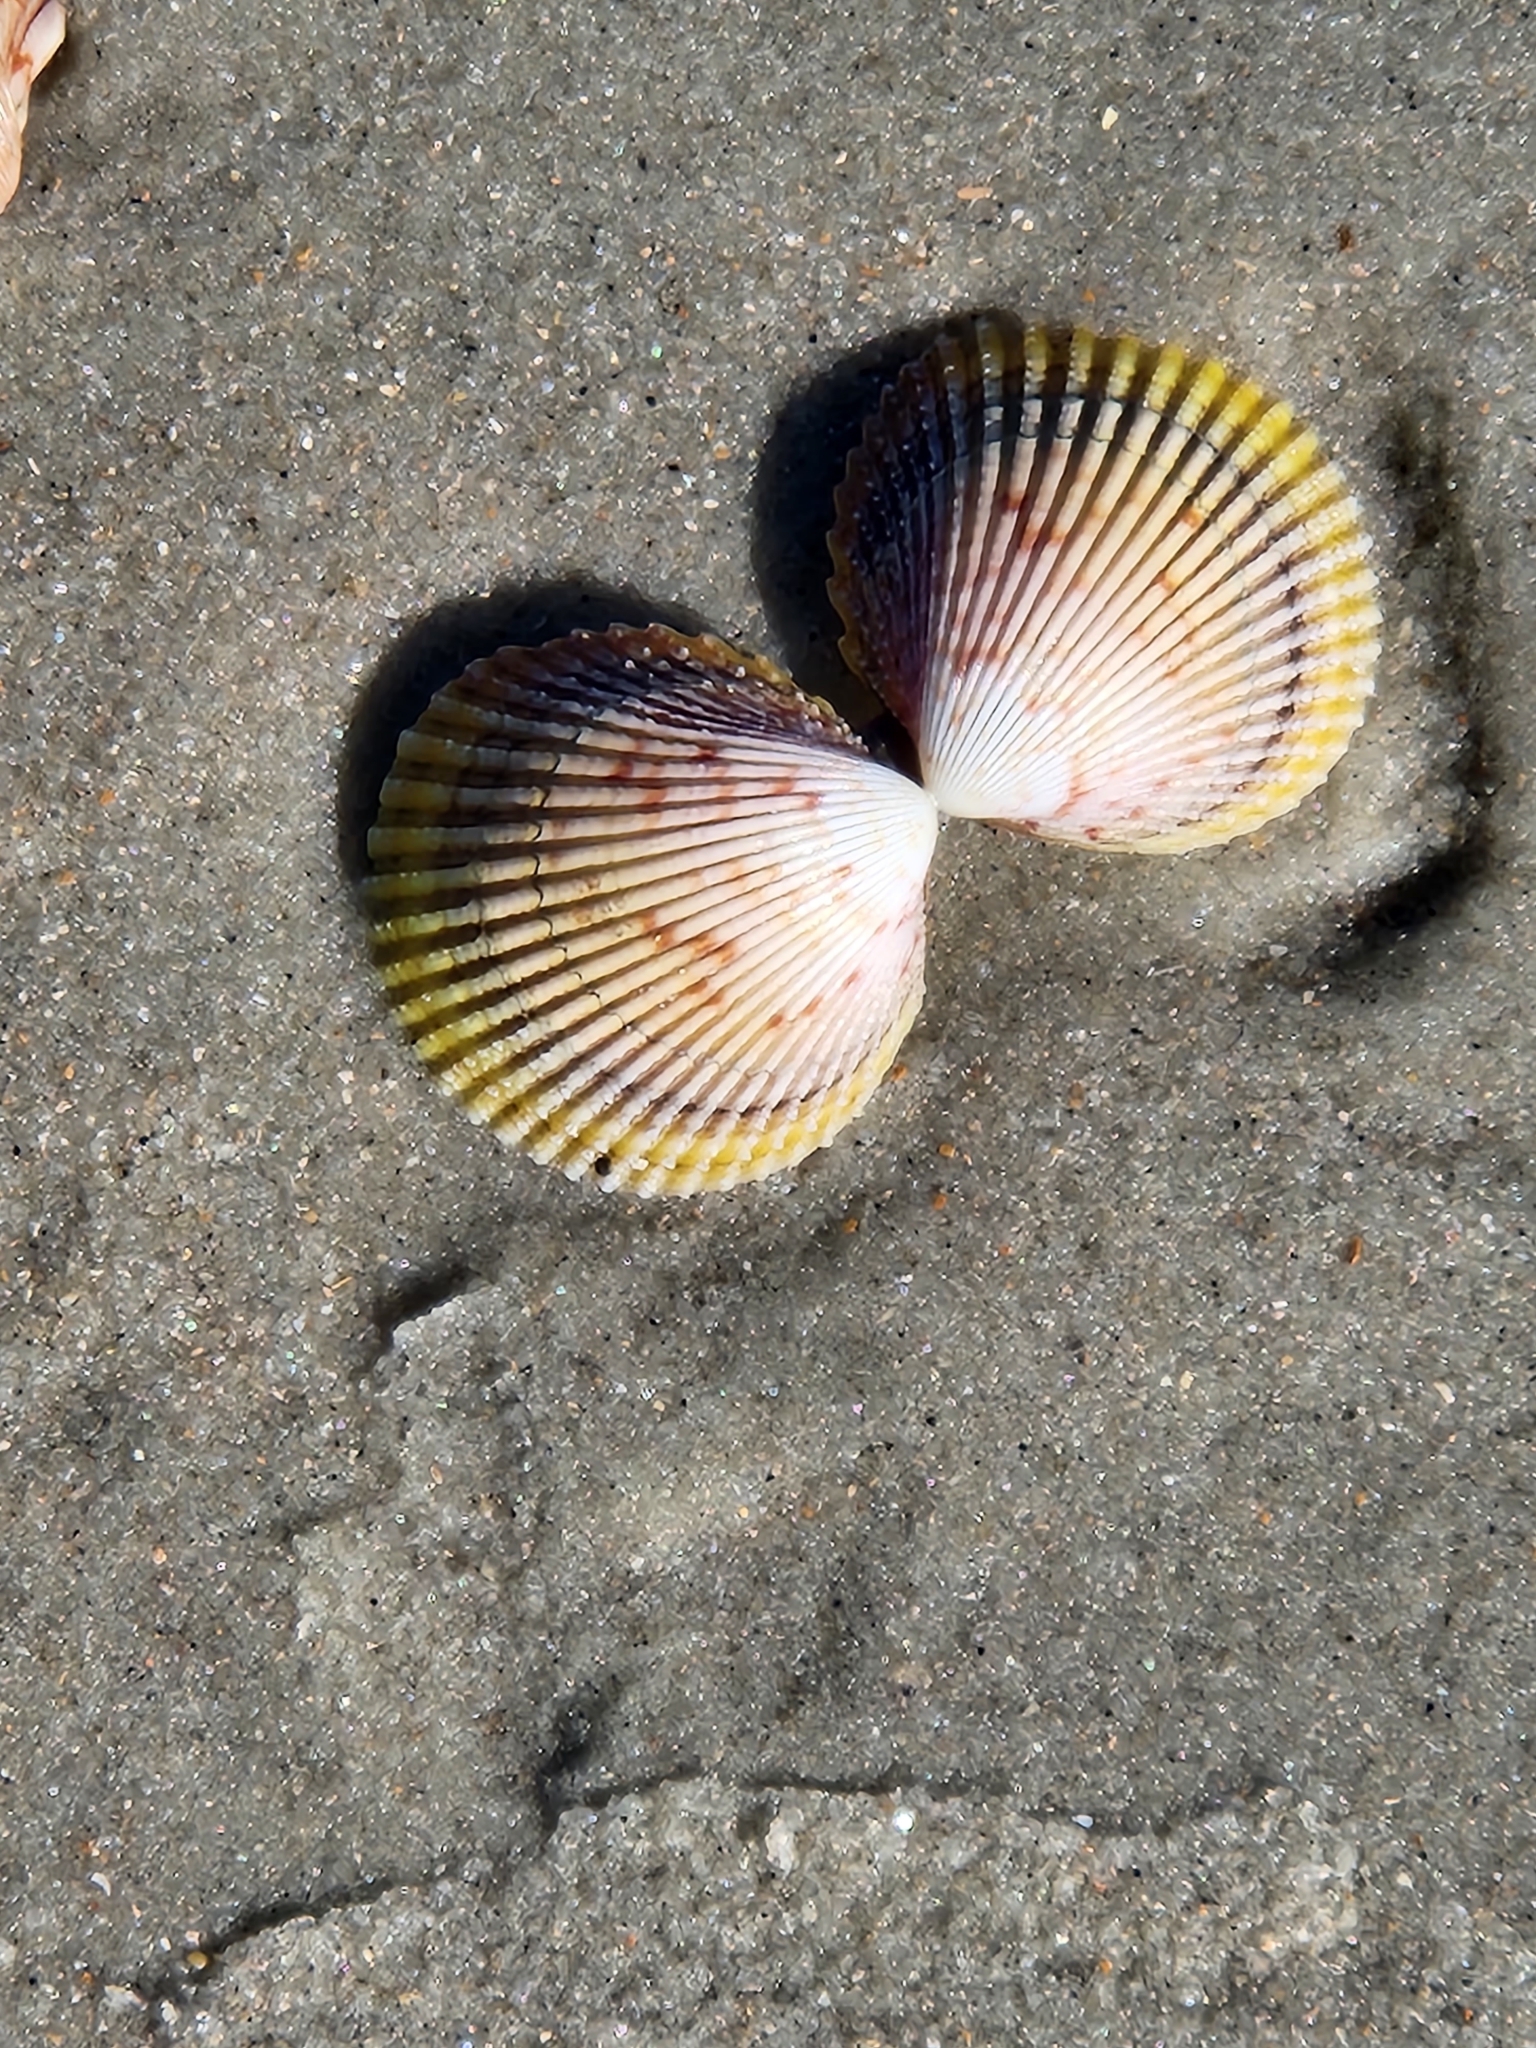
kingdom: Animalia
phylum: Mollusca
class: Bivalvia
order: Cardiida
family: Cardiidae
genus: Dallocardia
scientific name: Dallocardia muricata
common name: Yellow pricklycockle
